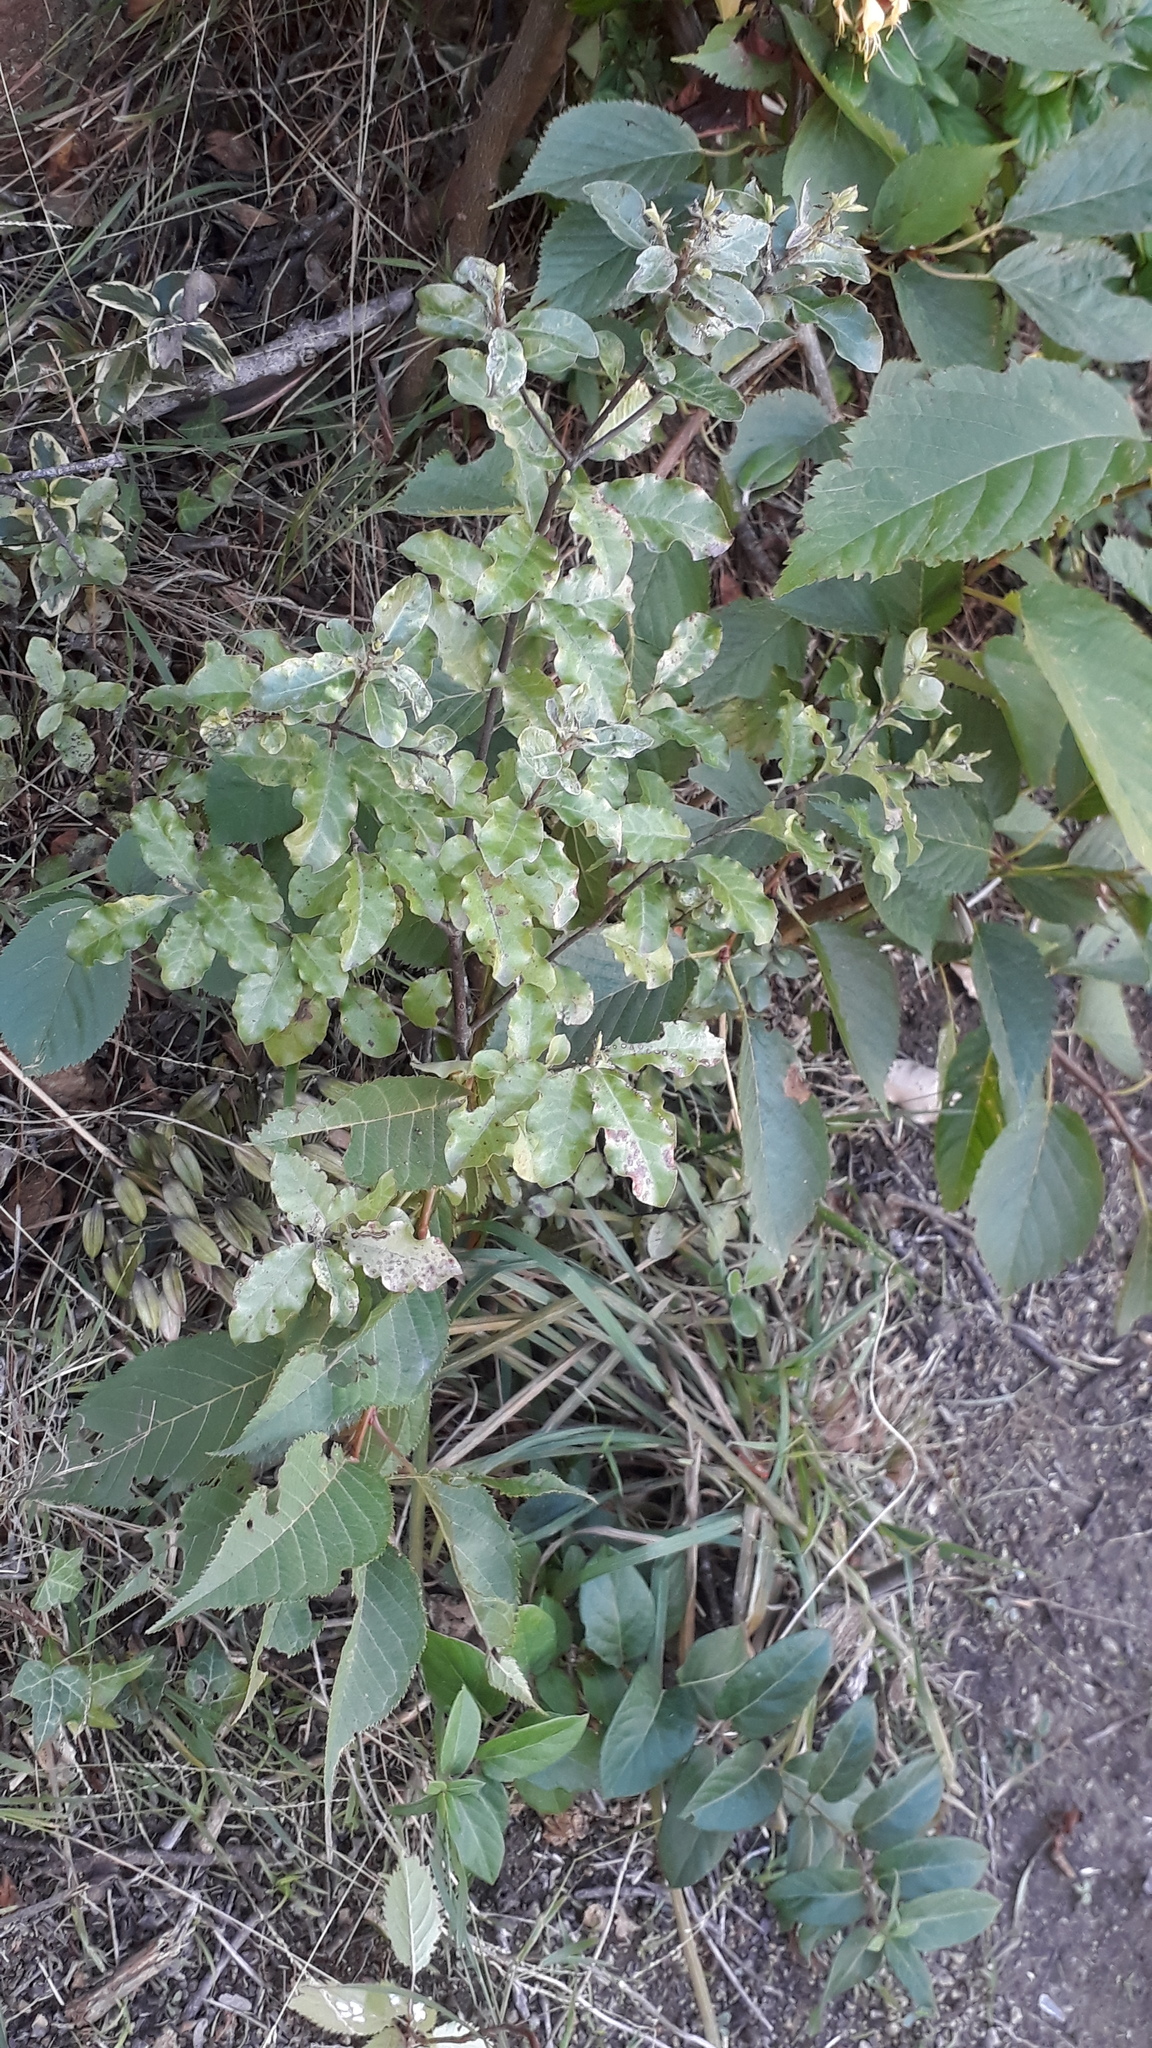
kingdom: Plantae
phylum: Tracheophyta
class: Magnoliopsida
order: Apiales
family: Pittosporaceae
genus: Pittosporum
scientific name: Pittosporum tenuifolium
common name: Kohuhu
